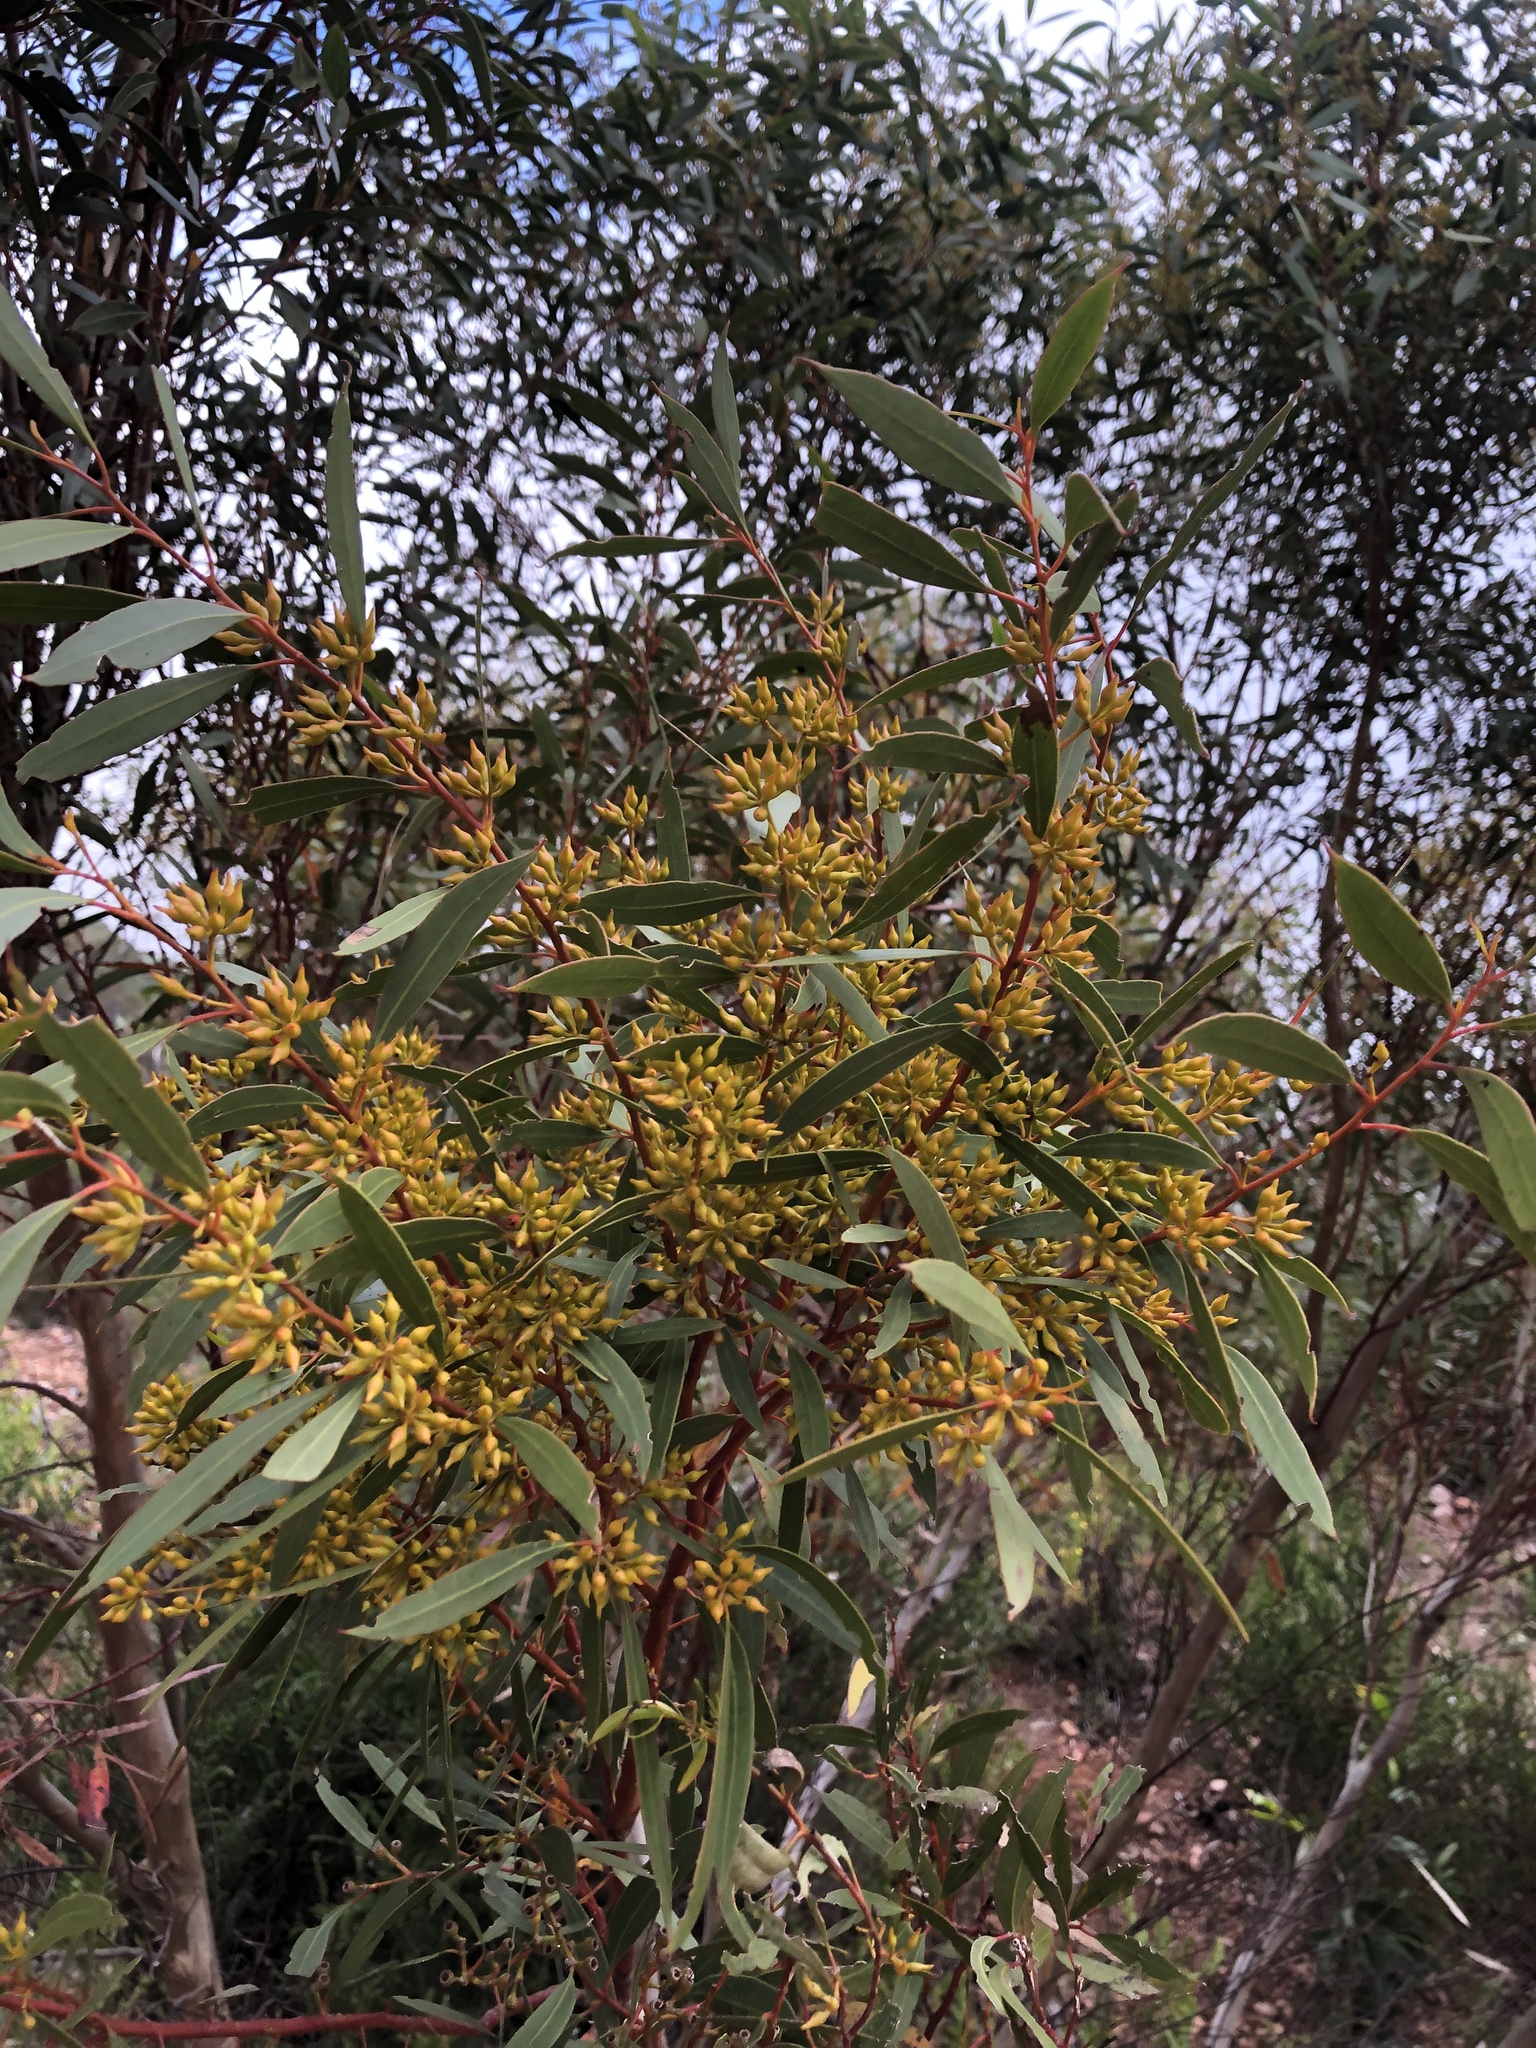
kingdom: Plantae
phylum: Tracheophyta
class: Magnoliopsida
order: Myrtales
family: Myrtaceae
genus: Eucalyptus
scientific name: Eucalyptus socialis
